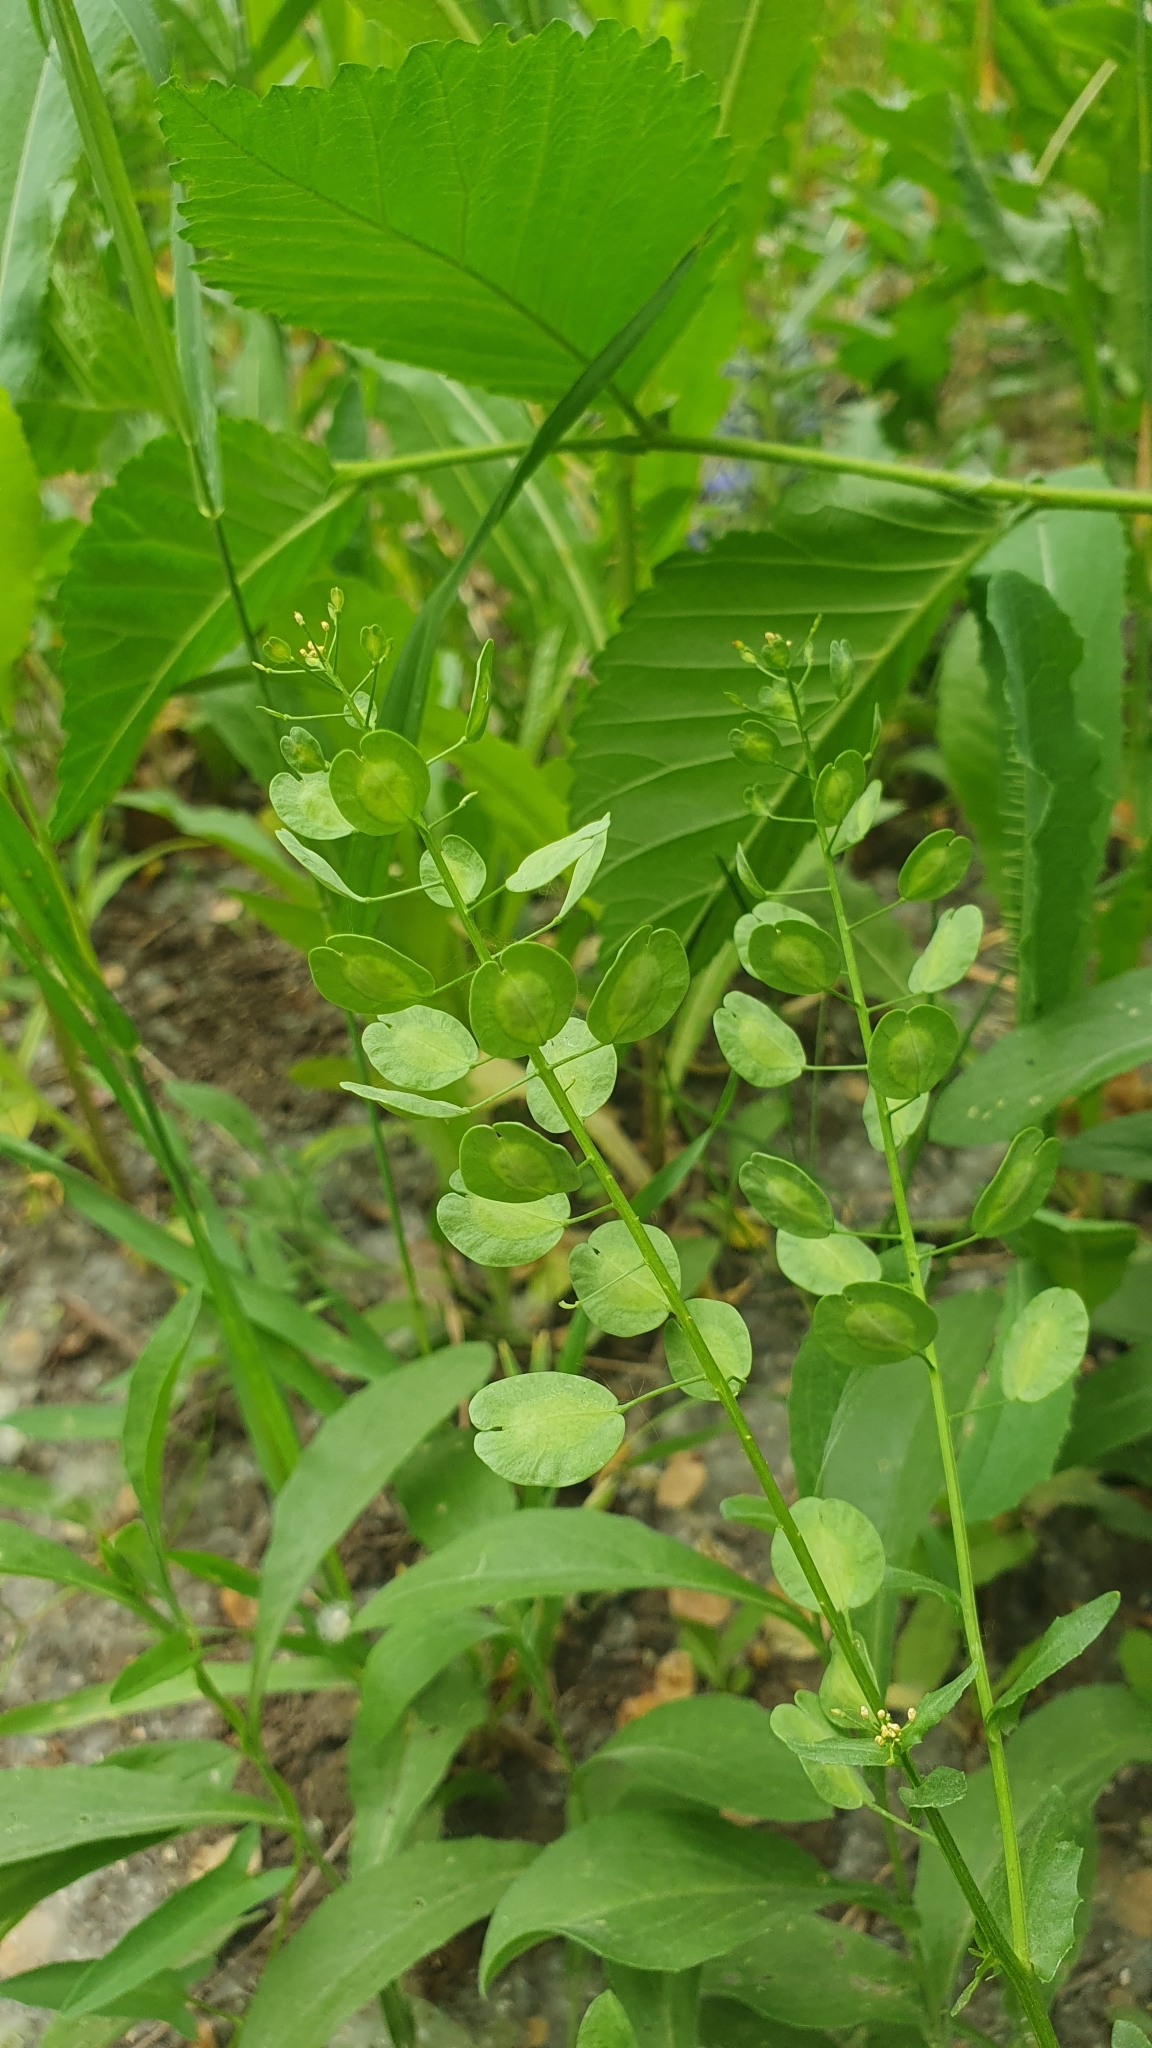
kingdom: Plantae
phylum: Tracheophyta
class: Magnoliopsida
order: Brassicales
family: Brassicaceae
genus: Thlaspi
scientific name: Thlaspi arvense
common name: Field pennycress
